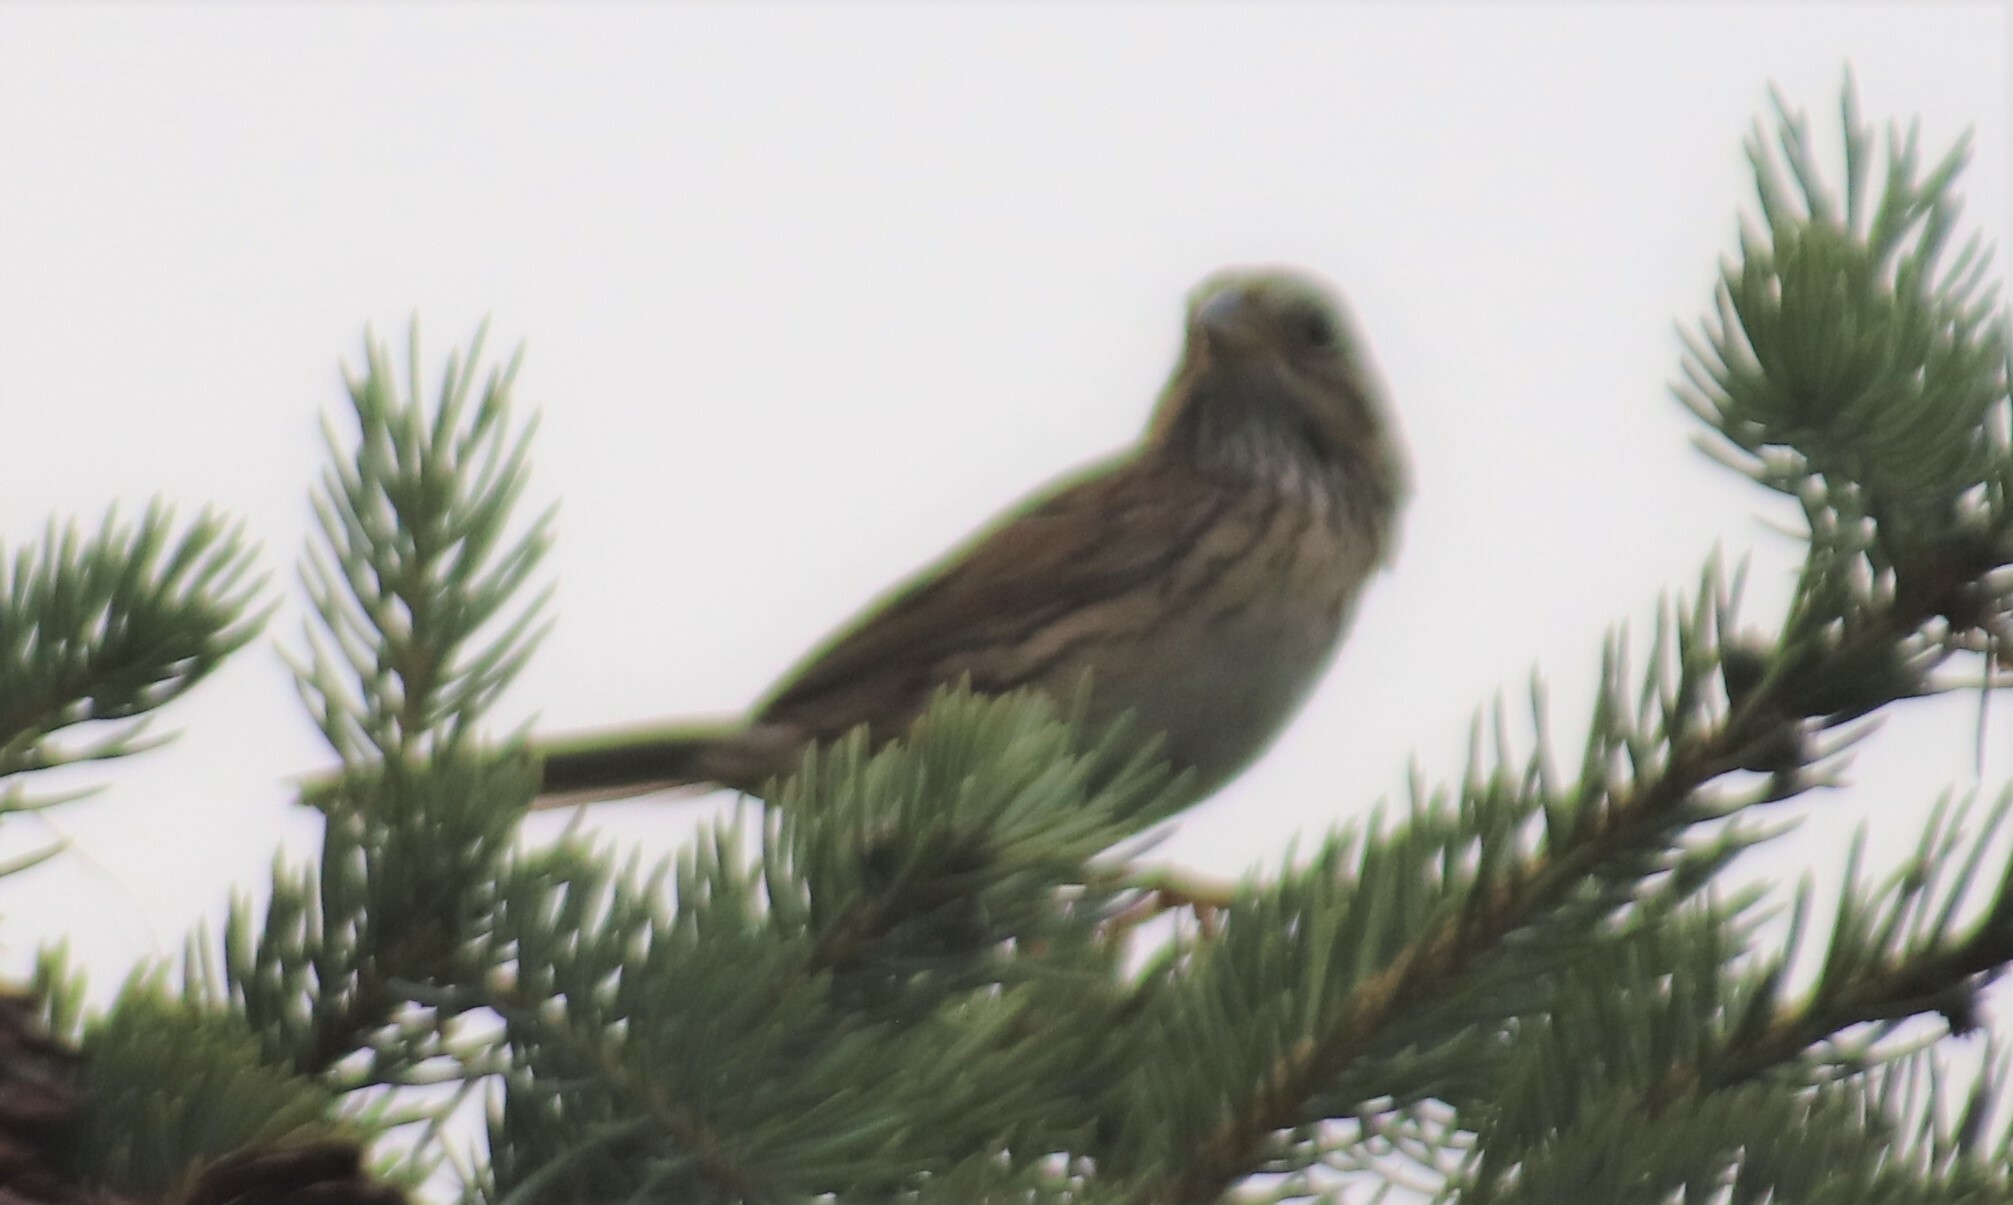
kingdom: Animalia
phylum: Chordata
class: Aves
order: Passeriformes
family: Passerellidae
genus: Melospiza
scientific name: Melospiza lincolnii
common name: Lincoln's sparrow
